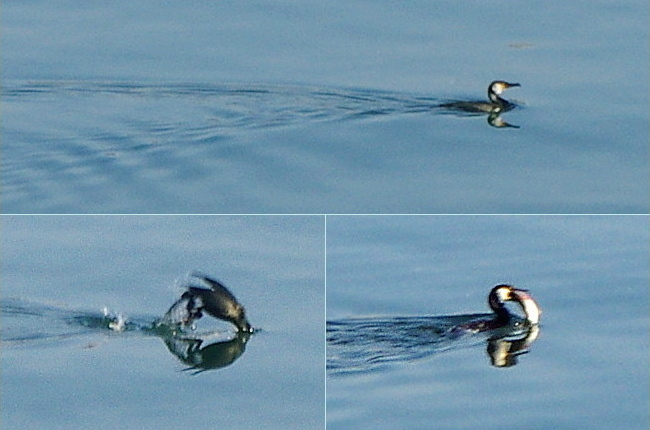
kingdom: Animalia
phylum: Chordata
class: Aves
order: Suliformes
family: Phalacrocoracidae
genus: Phalacrocorax
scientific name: Phalacrocorax capillatus
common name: Japanese cormorant
